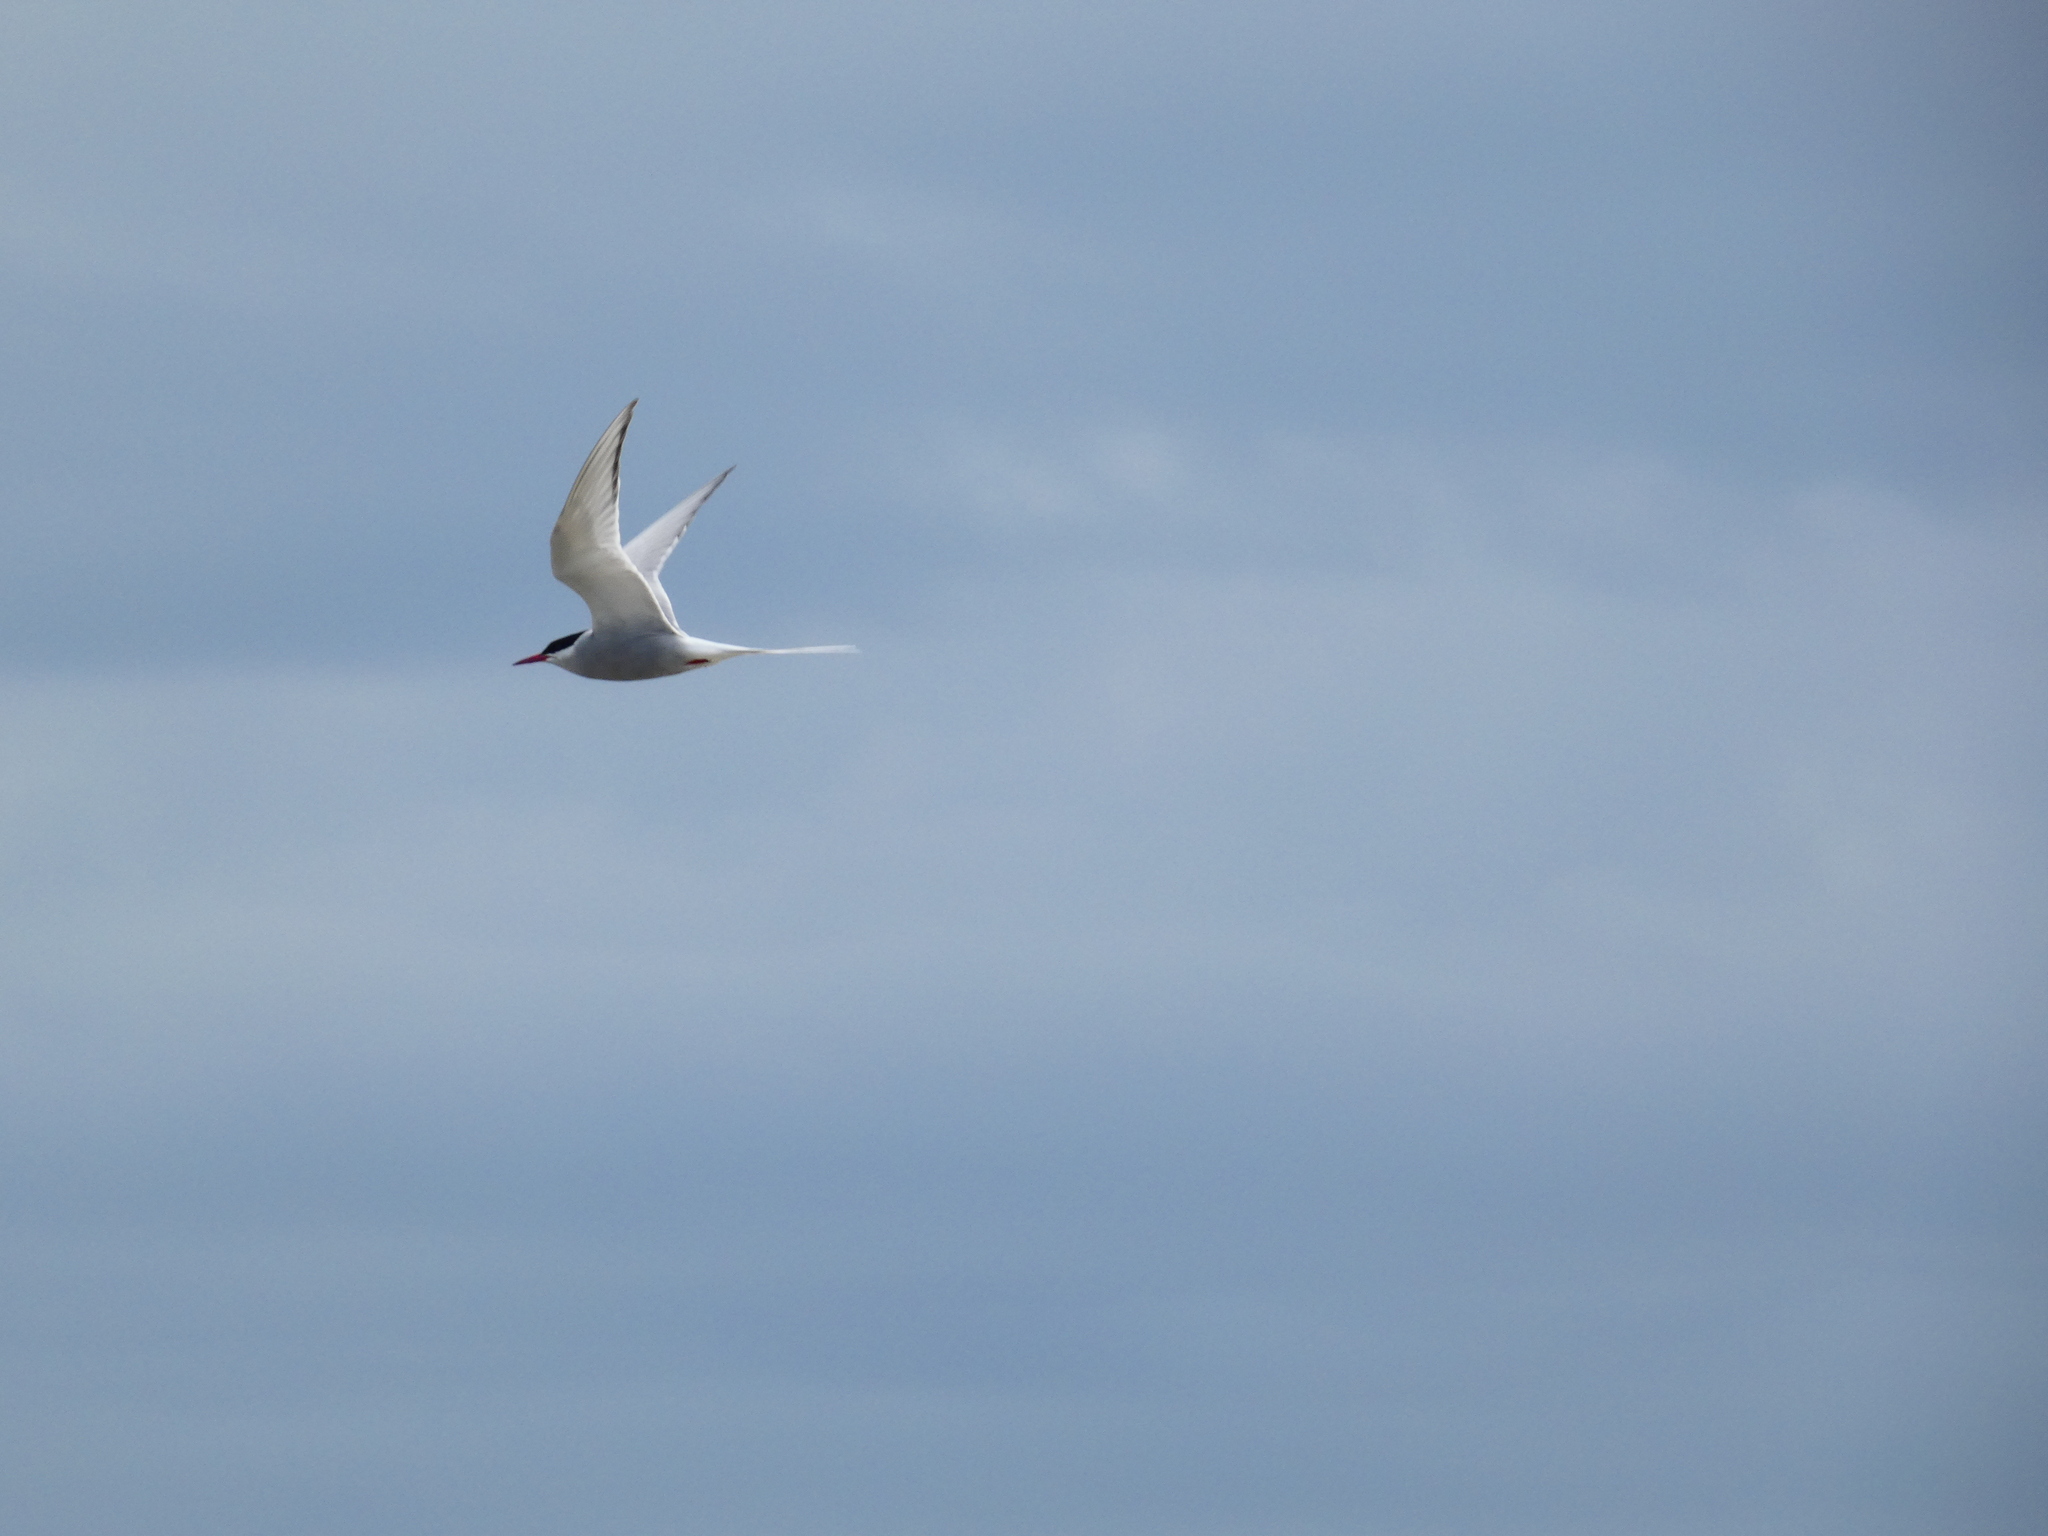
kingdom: Animalia
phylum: Chordata
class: Aves
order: Charadriiformes
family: Laridae
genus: Sterna
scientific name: Sterna paradisaea
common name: Arctic tern
